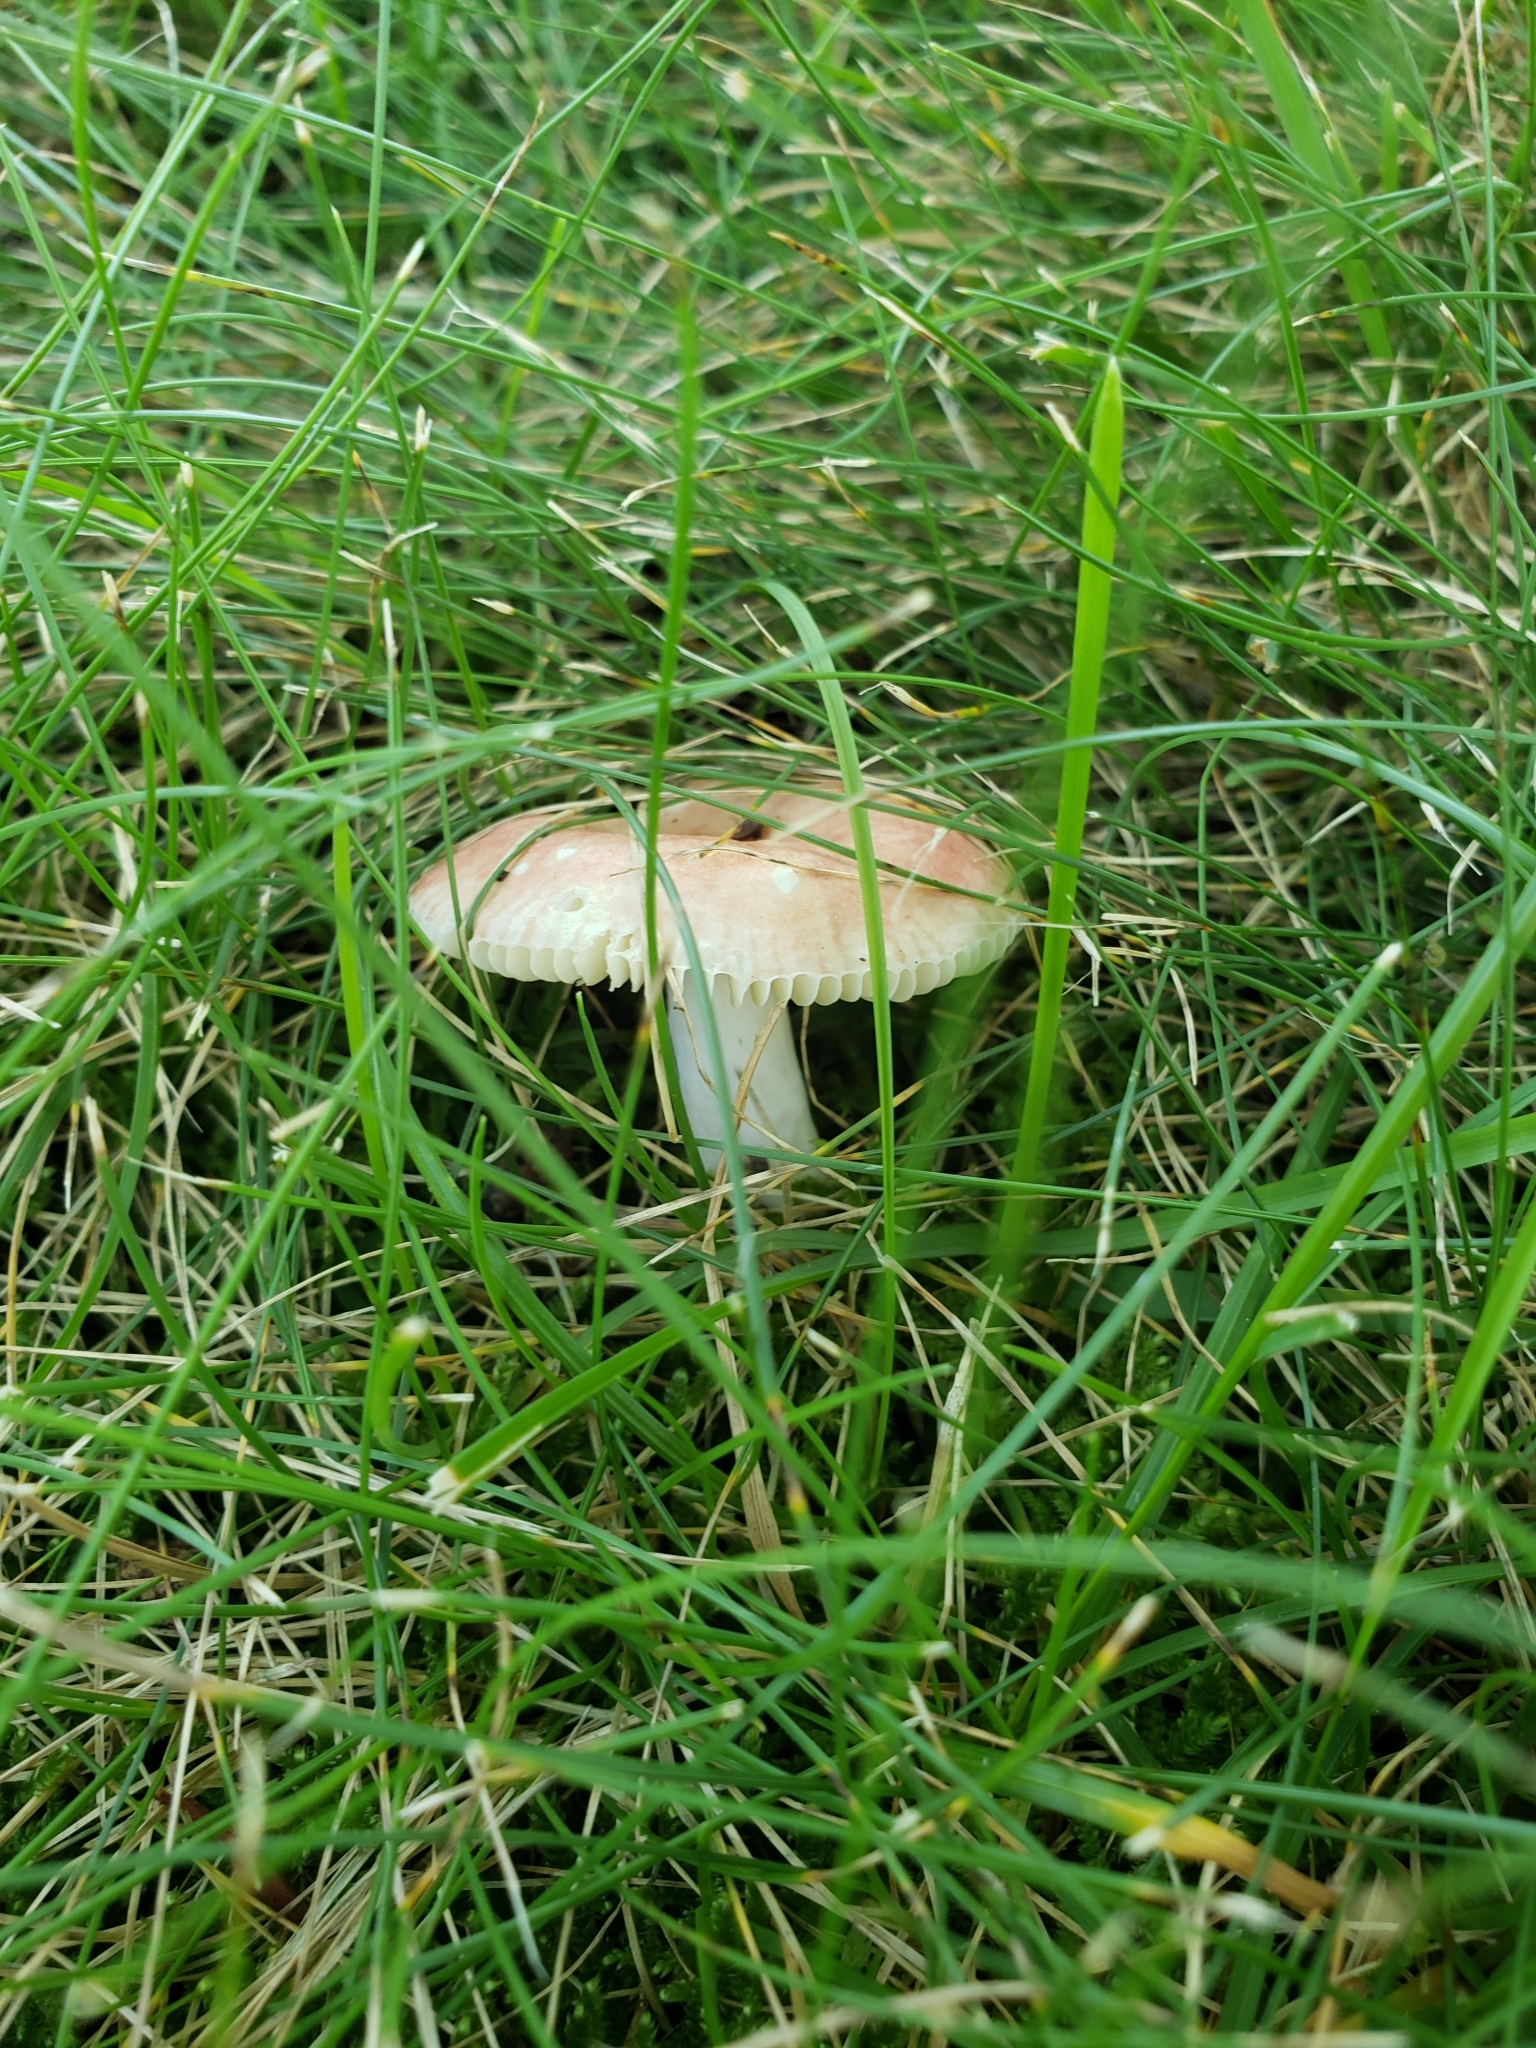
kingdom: Fungi
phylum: Basidiomycota
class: Agaricomycetes
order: Russulales
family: Russulaceae
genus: Russula
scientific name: Russula
